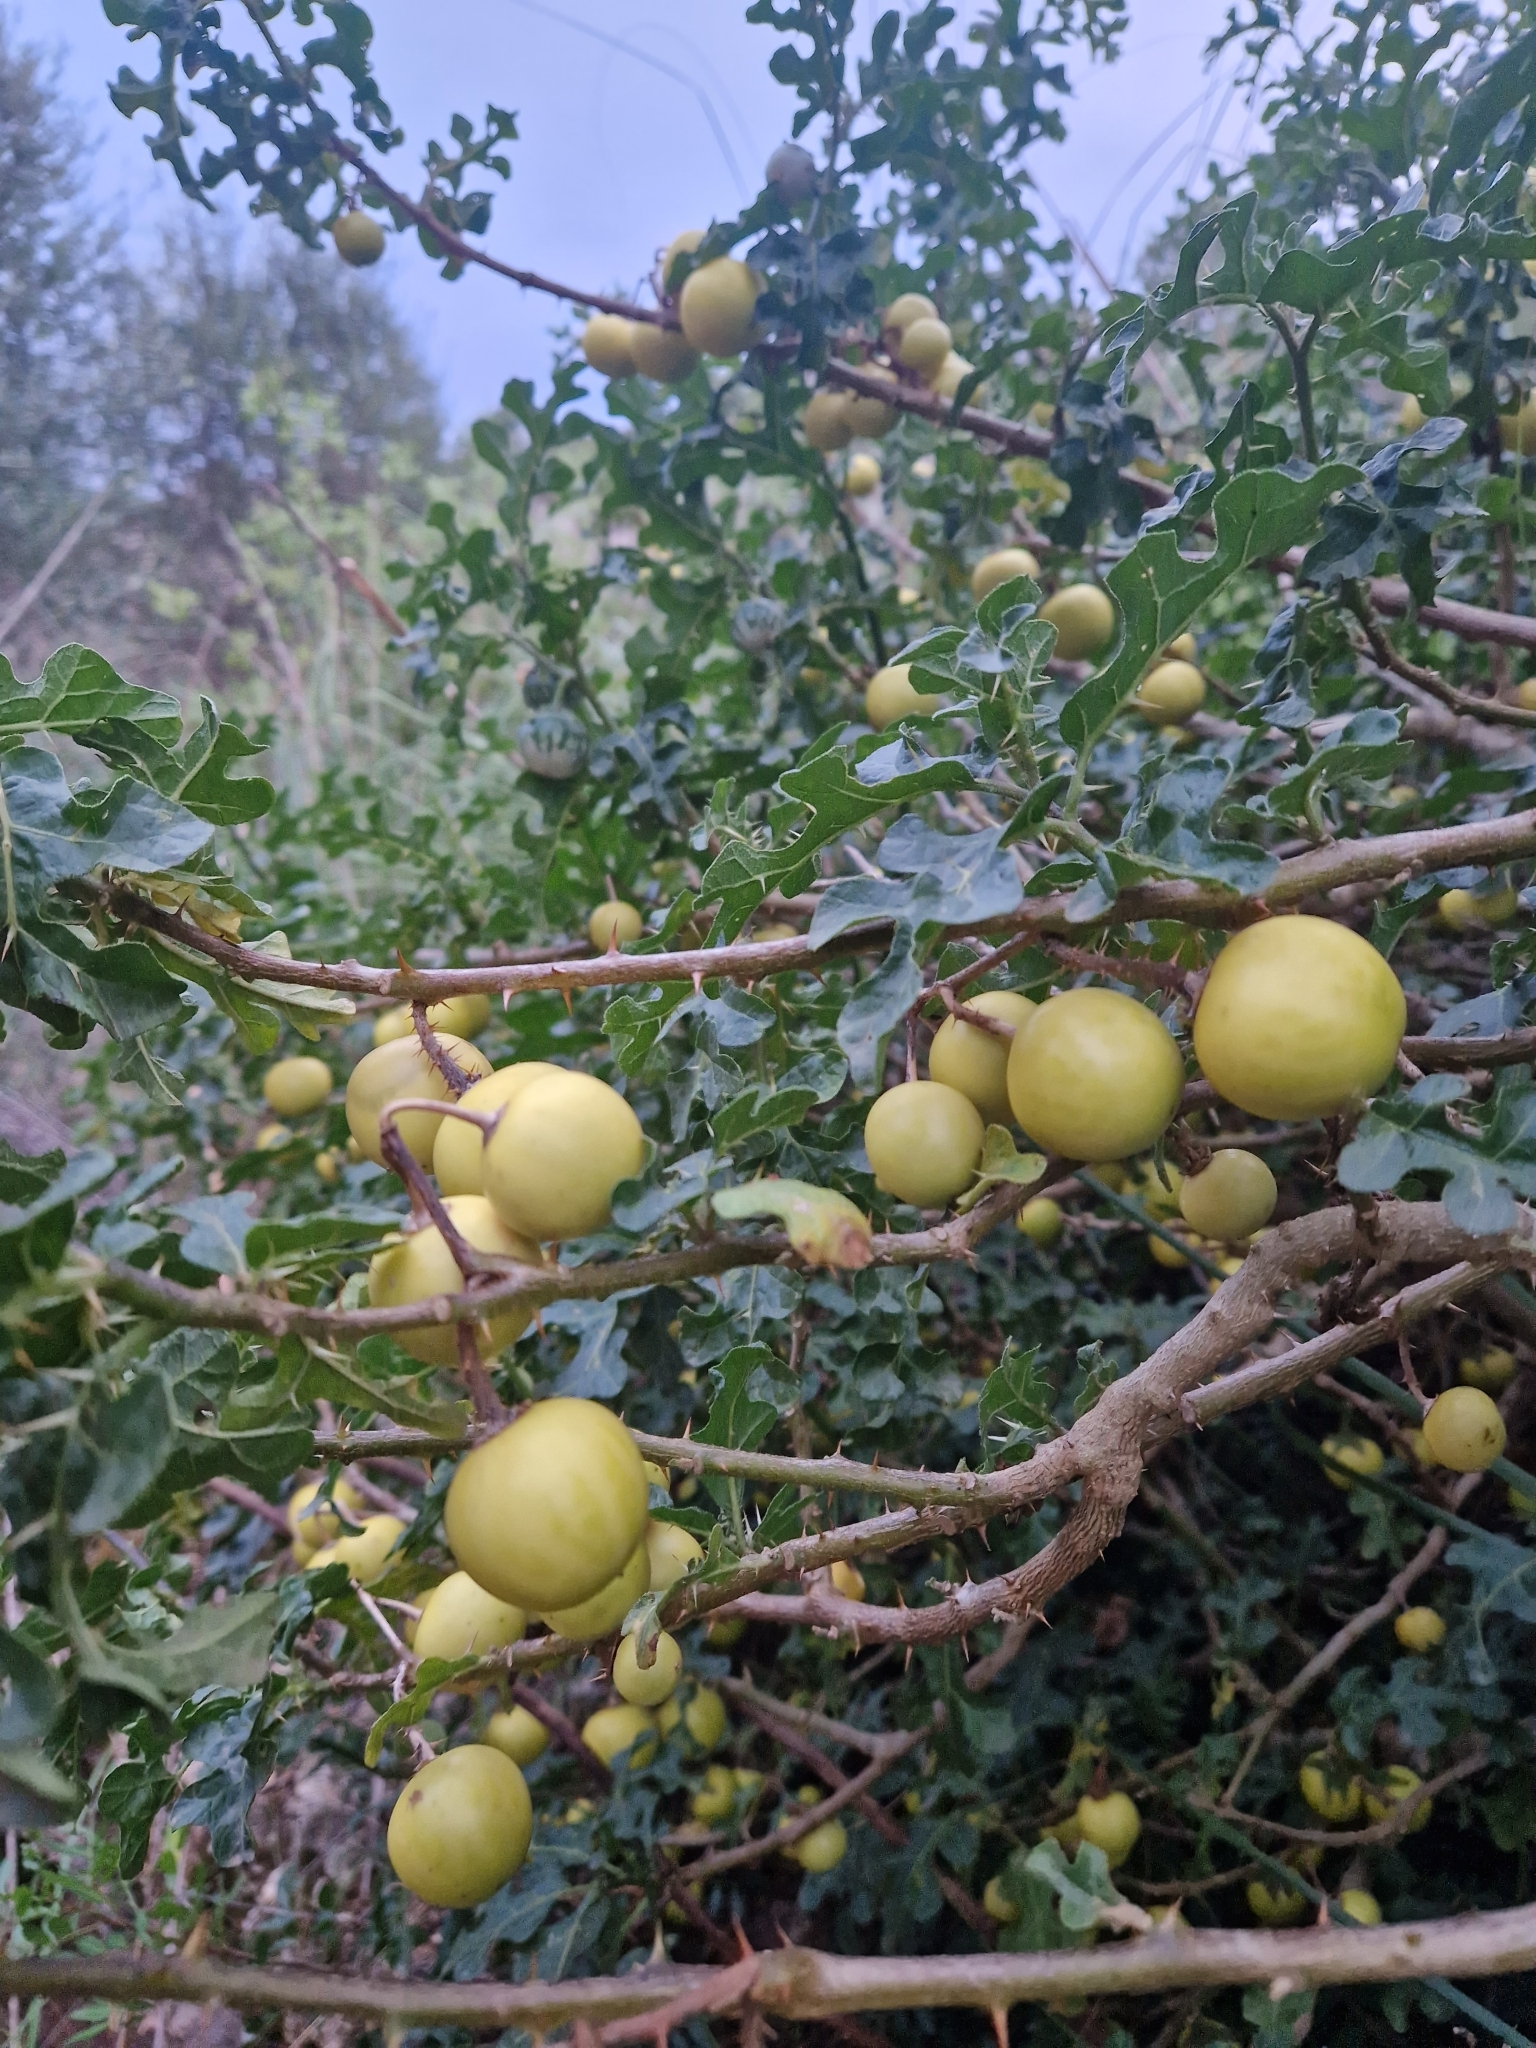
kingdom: Plantae
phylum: Tracheophyta
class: Magnoliopsida
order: Solanales
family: Solanaceae
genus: Solanum
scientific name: Solanum linnaeanum
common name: Nightshade
